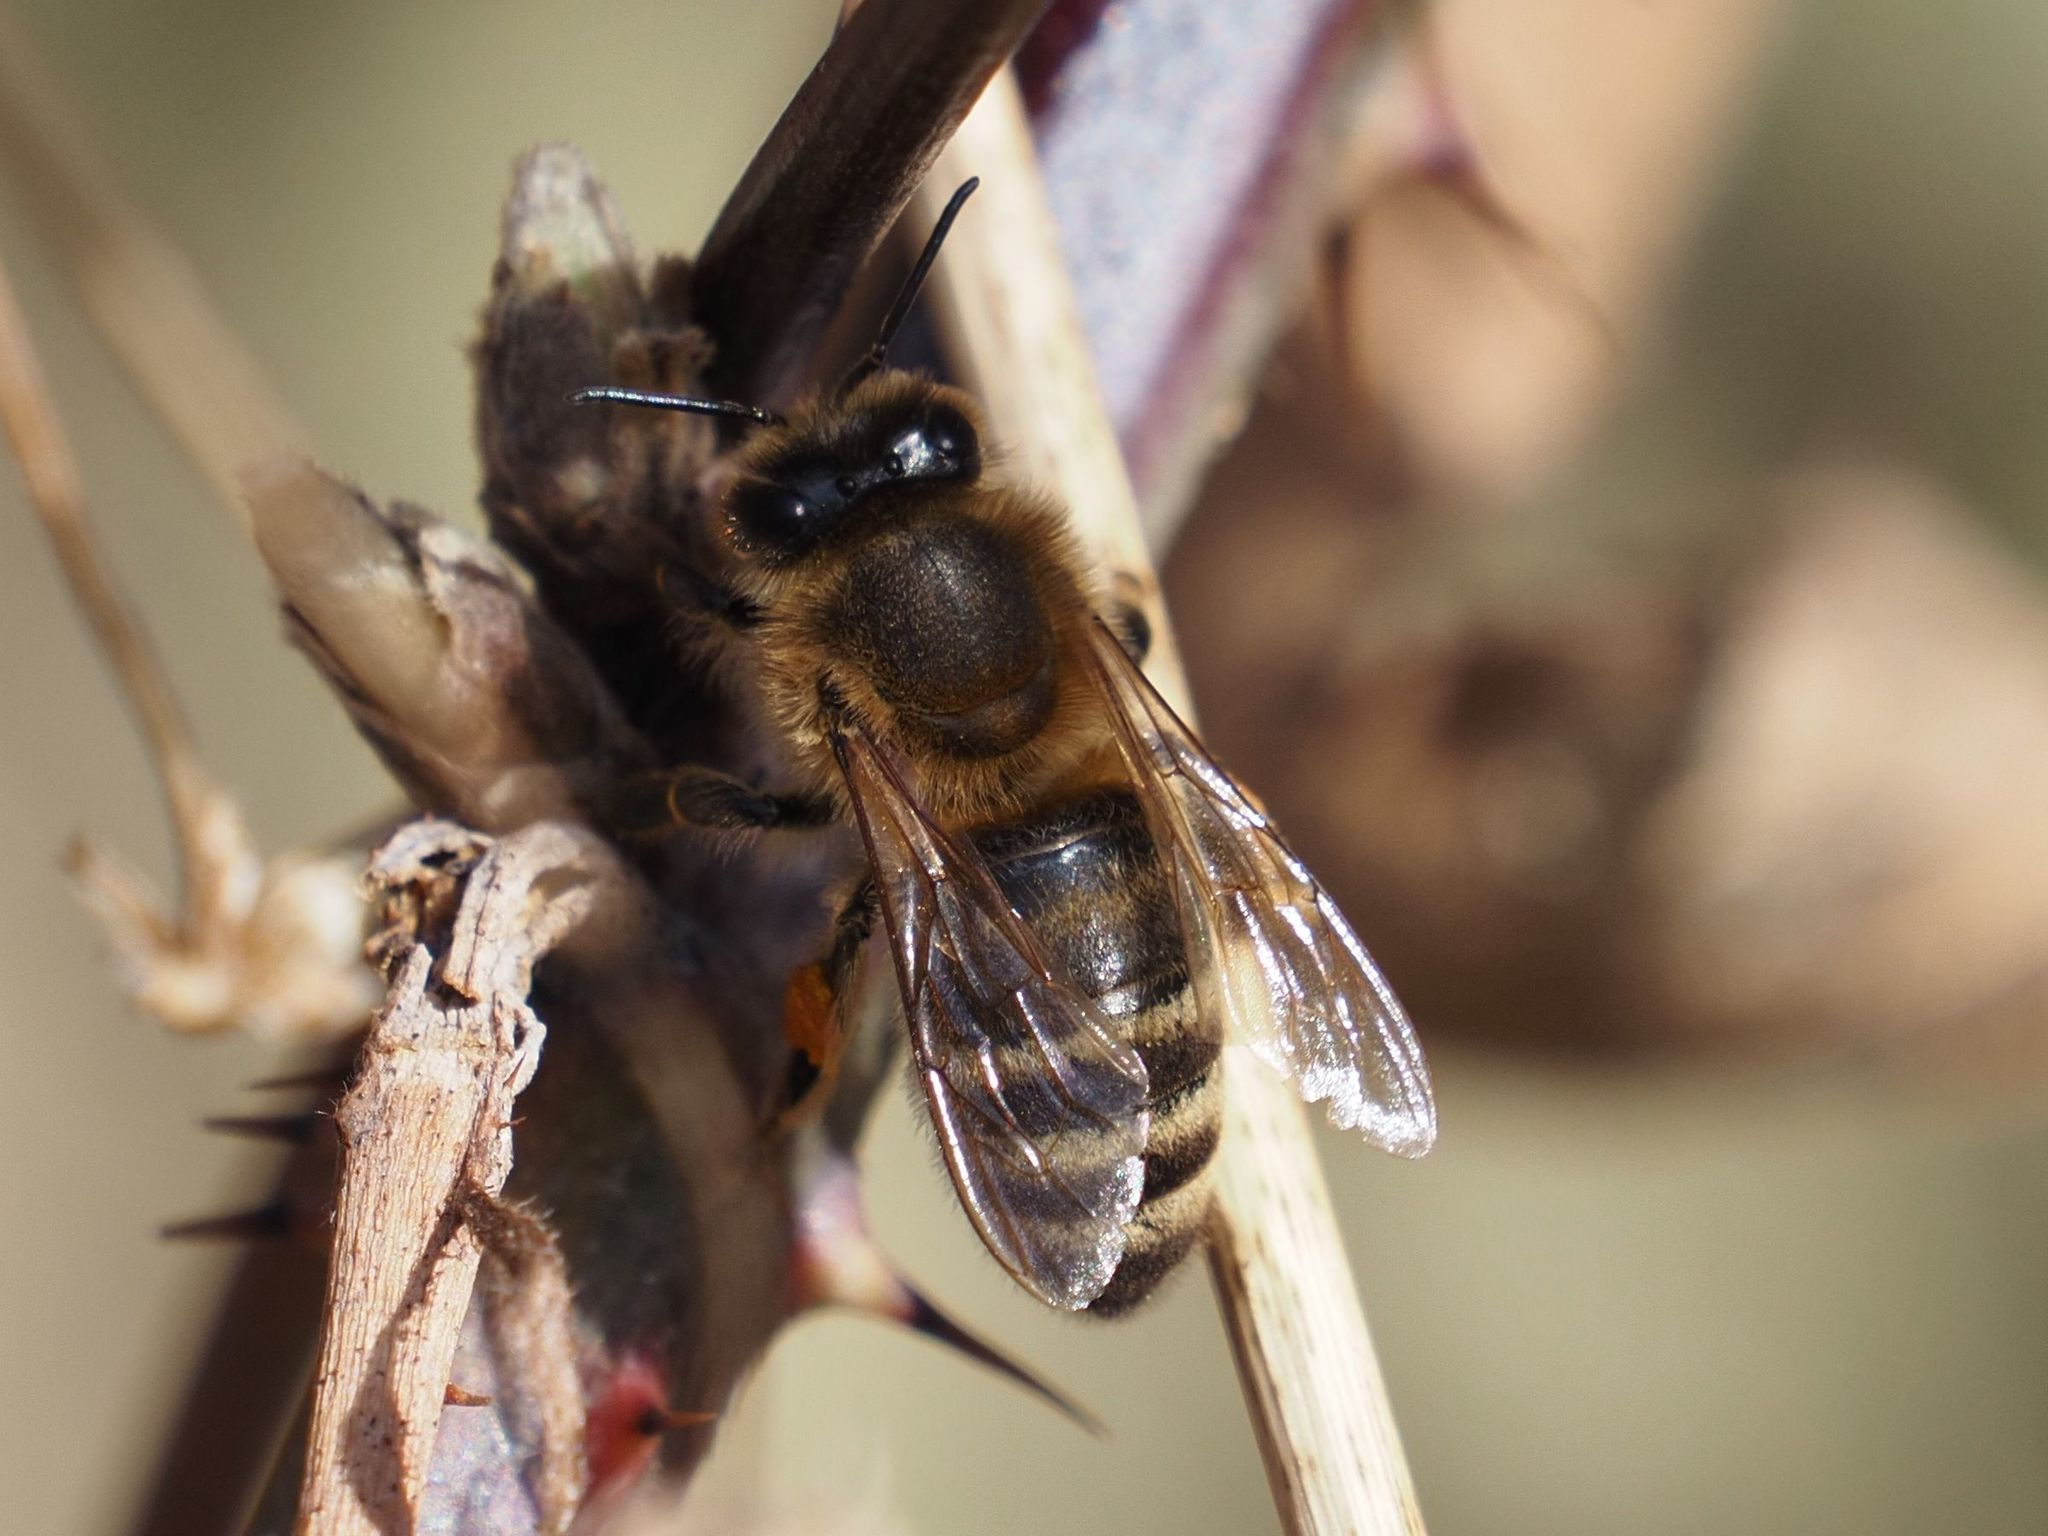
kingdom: Animalia
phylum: Arthropoda
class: Insecta
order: Hymenoptera
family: Apidae
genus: Apis
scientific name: Apis mellifera
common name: Honey bee
